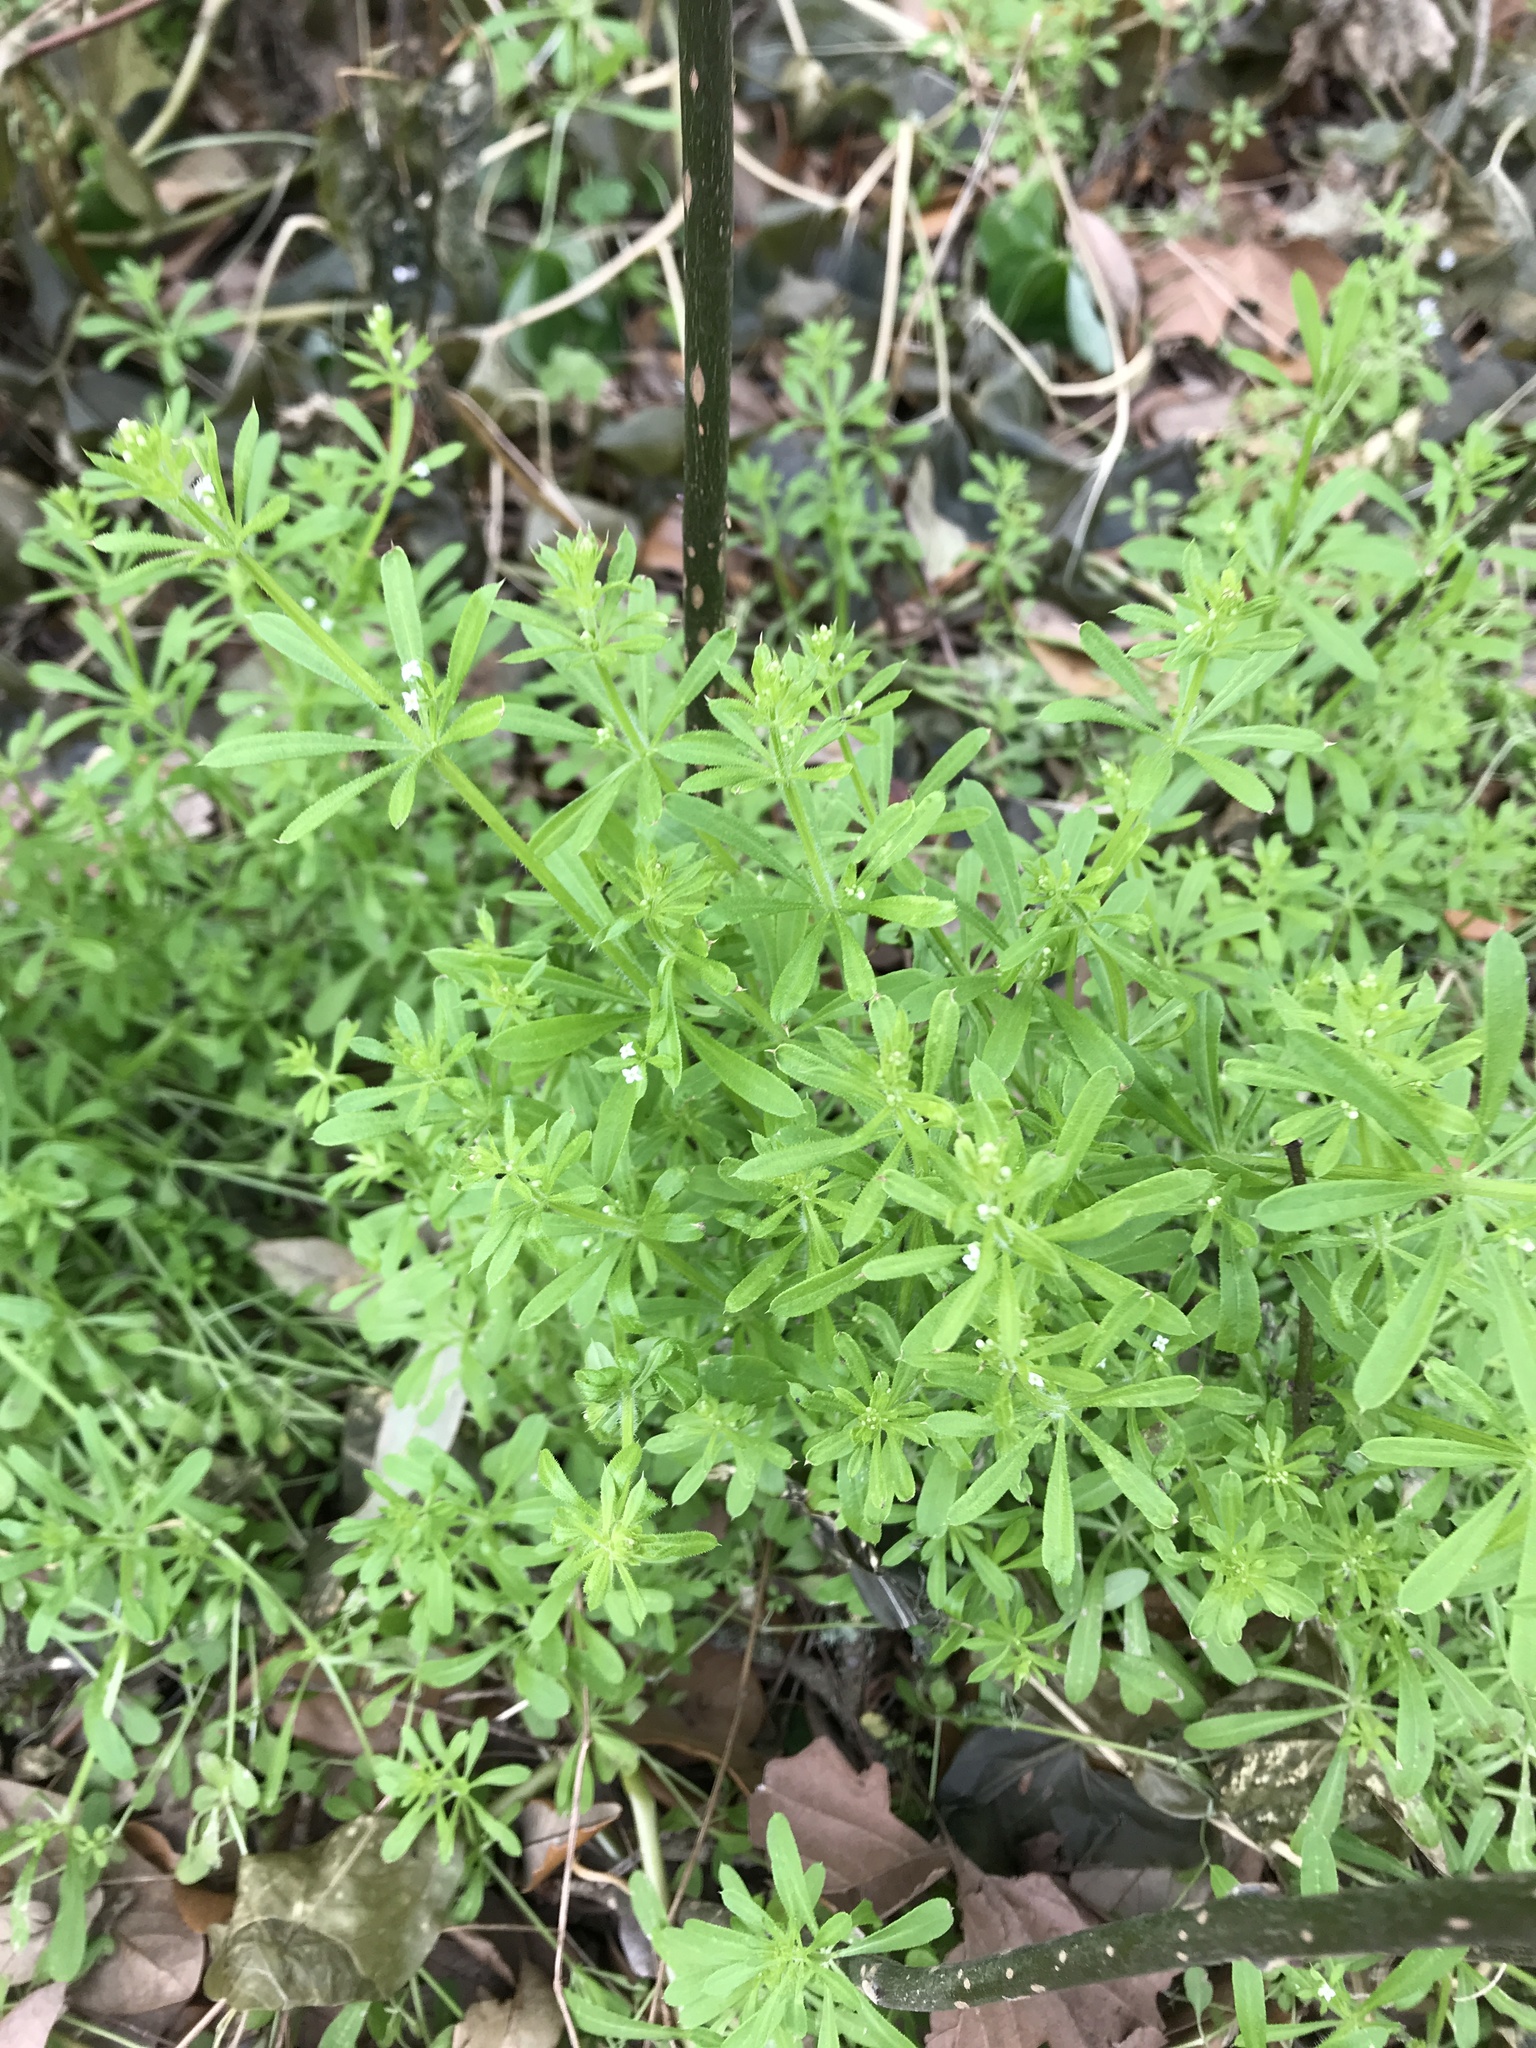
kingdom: Plantae
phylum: Tracheophyta
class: Magnoliopsida
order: Gentianales
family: Rubiaceae
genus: Galium
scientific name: Galium aparine
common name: Cleavers
